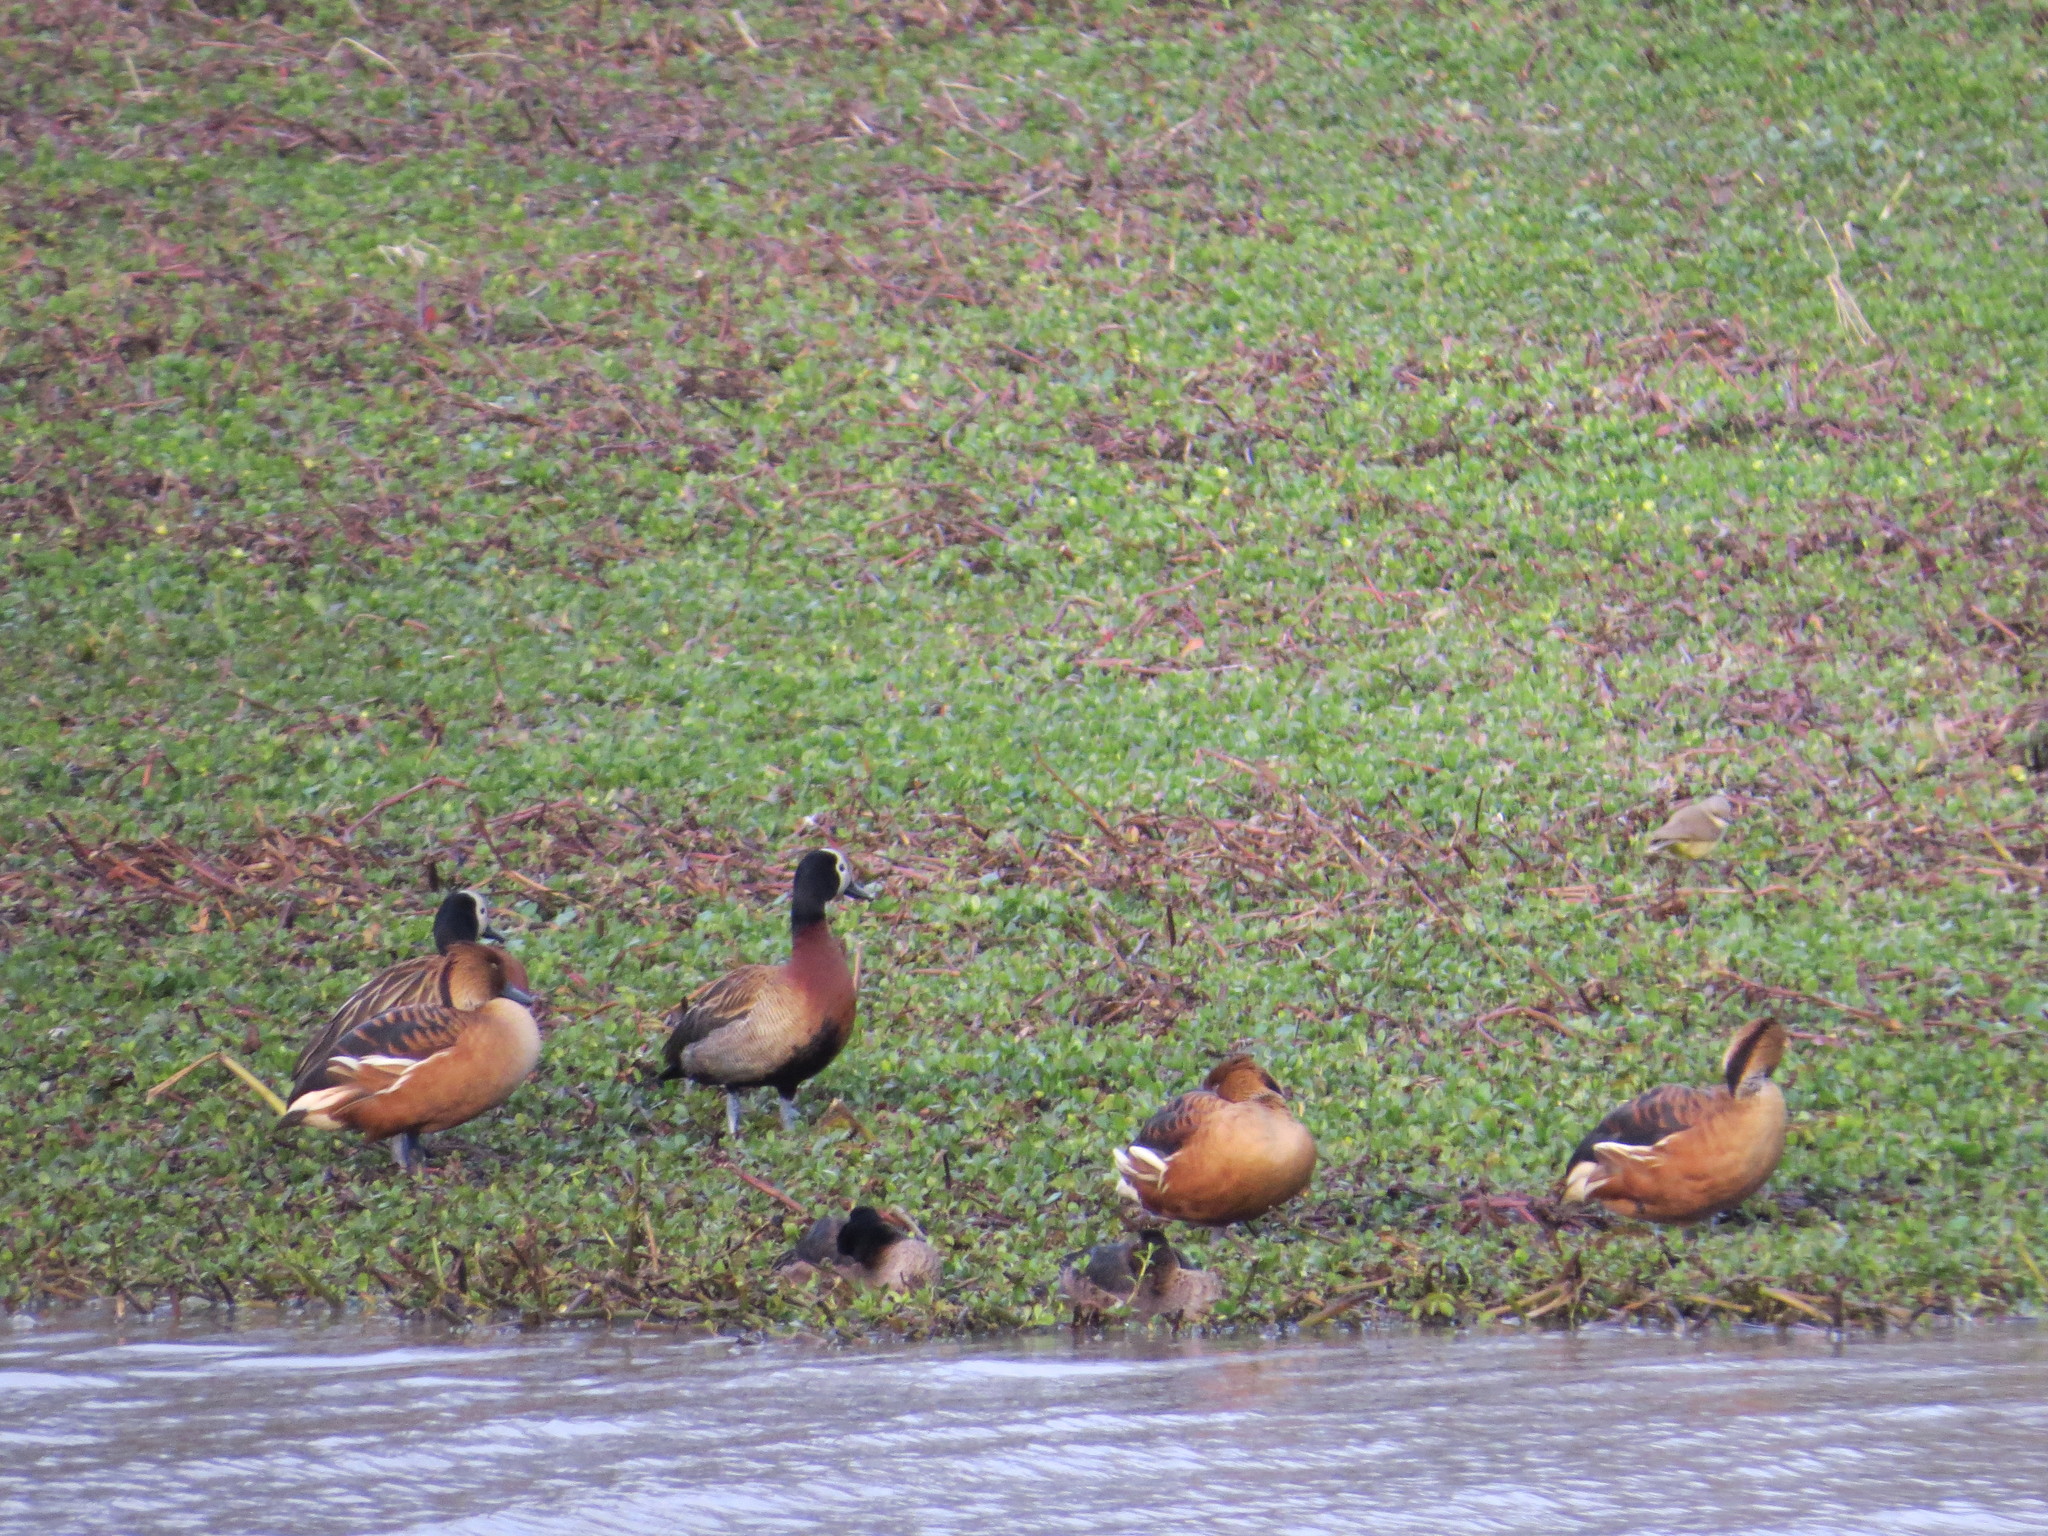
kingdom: Animalia
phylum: Chordata
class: Aves
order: Anseriformes
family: Anatidae
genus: Dendrocygna
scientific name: Dendrocygna viduata
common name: White-faced whistling duck
